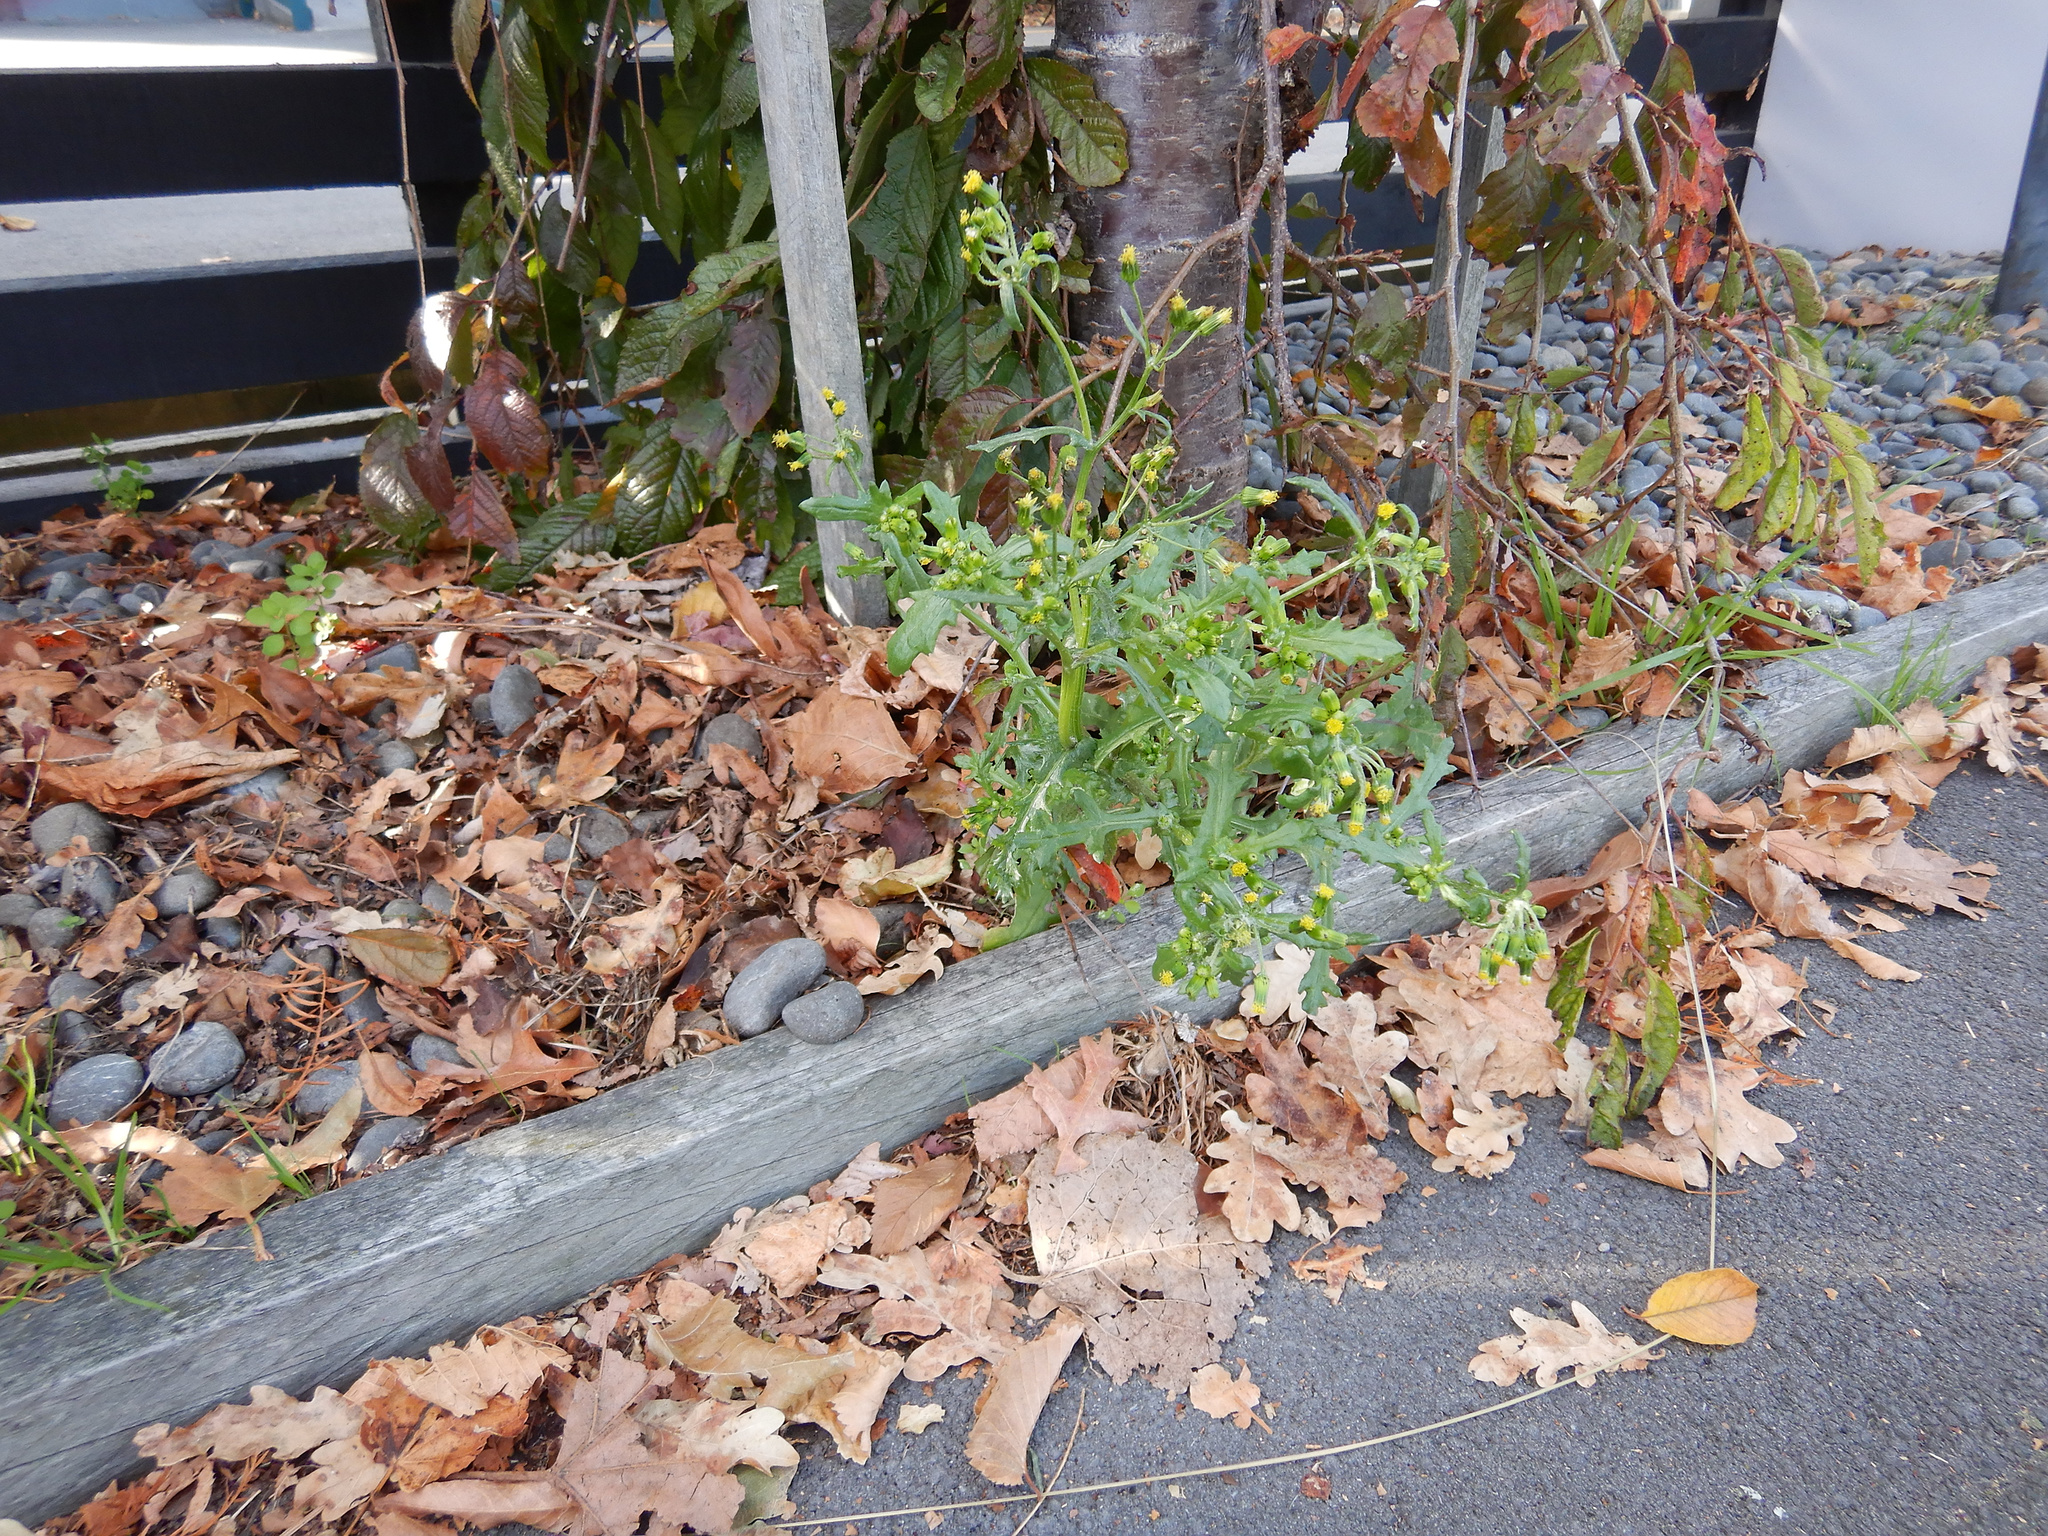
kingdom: Plantae
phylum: Tracheophyta
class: Magnoliopsida
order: Asterales
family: Asteraceae
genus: Senecio
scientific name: Senecio vulgaris
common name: Old-man-in-the-spring
